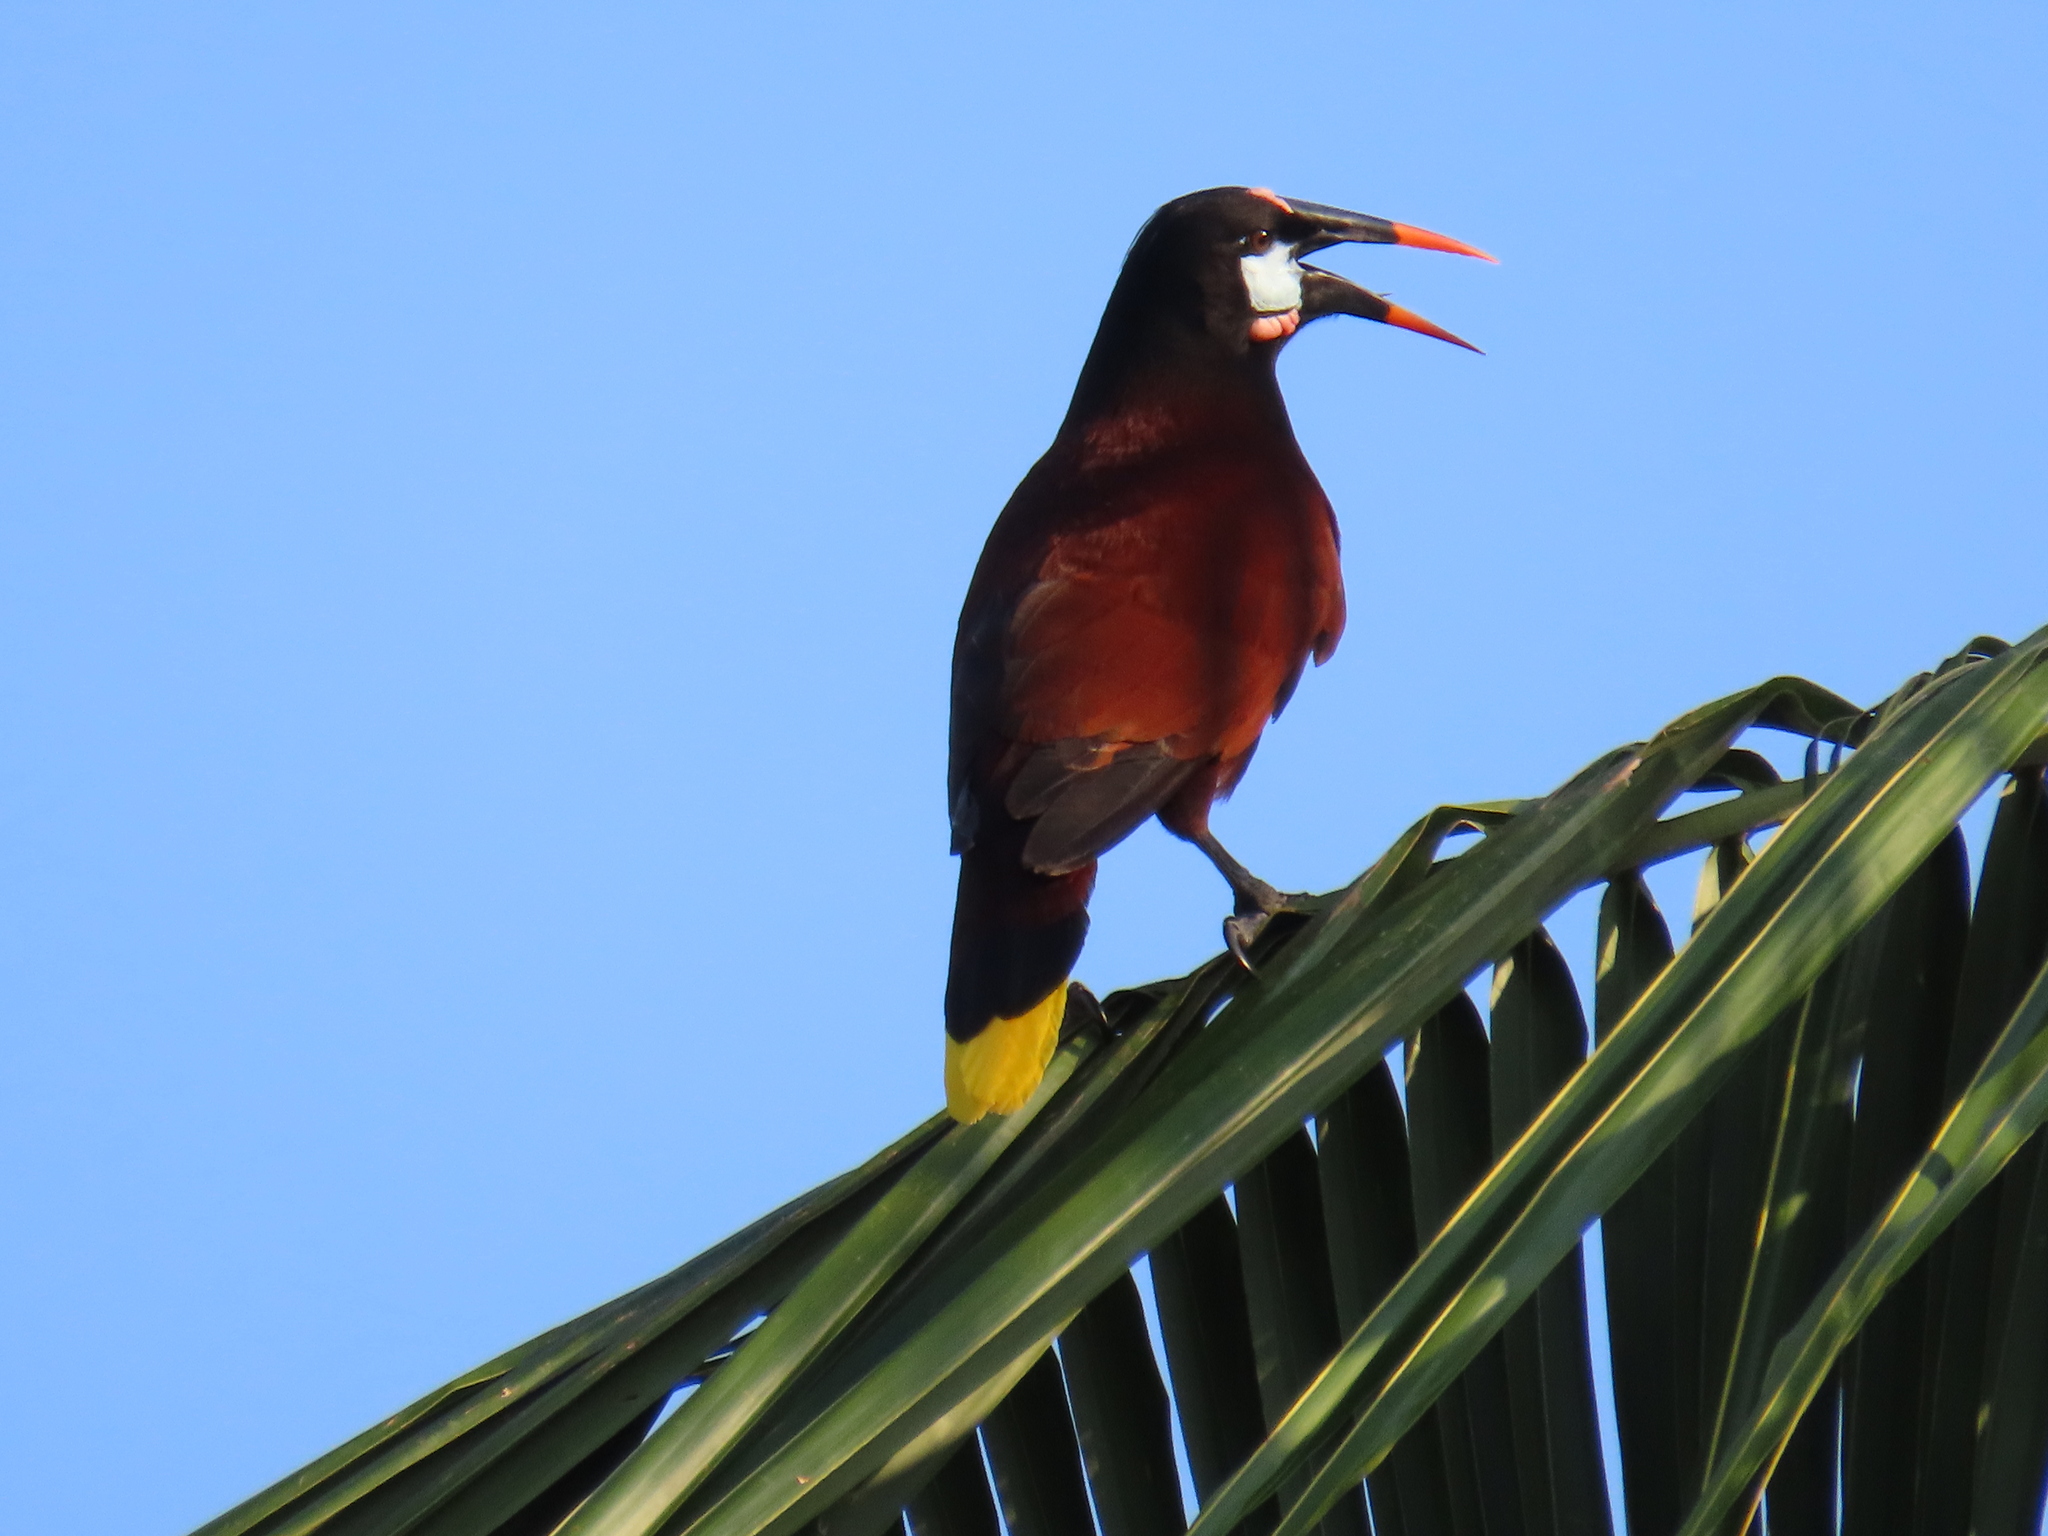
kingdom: Animalia
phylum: Chordata
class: Aves
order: Passeriformes
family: Icteridae
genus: Psarocolius
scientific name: Psarocolius montezuma
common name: Montezuma oropendola
